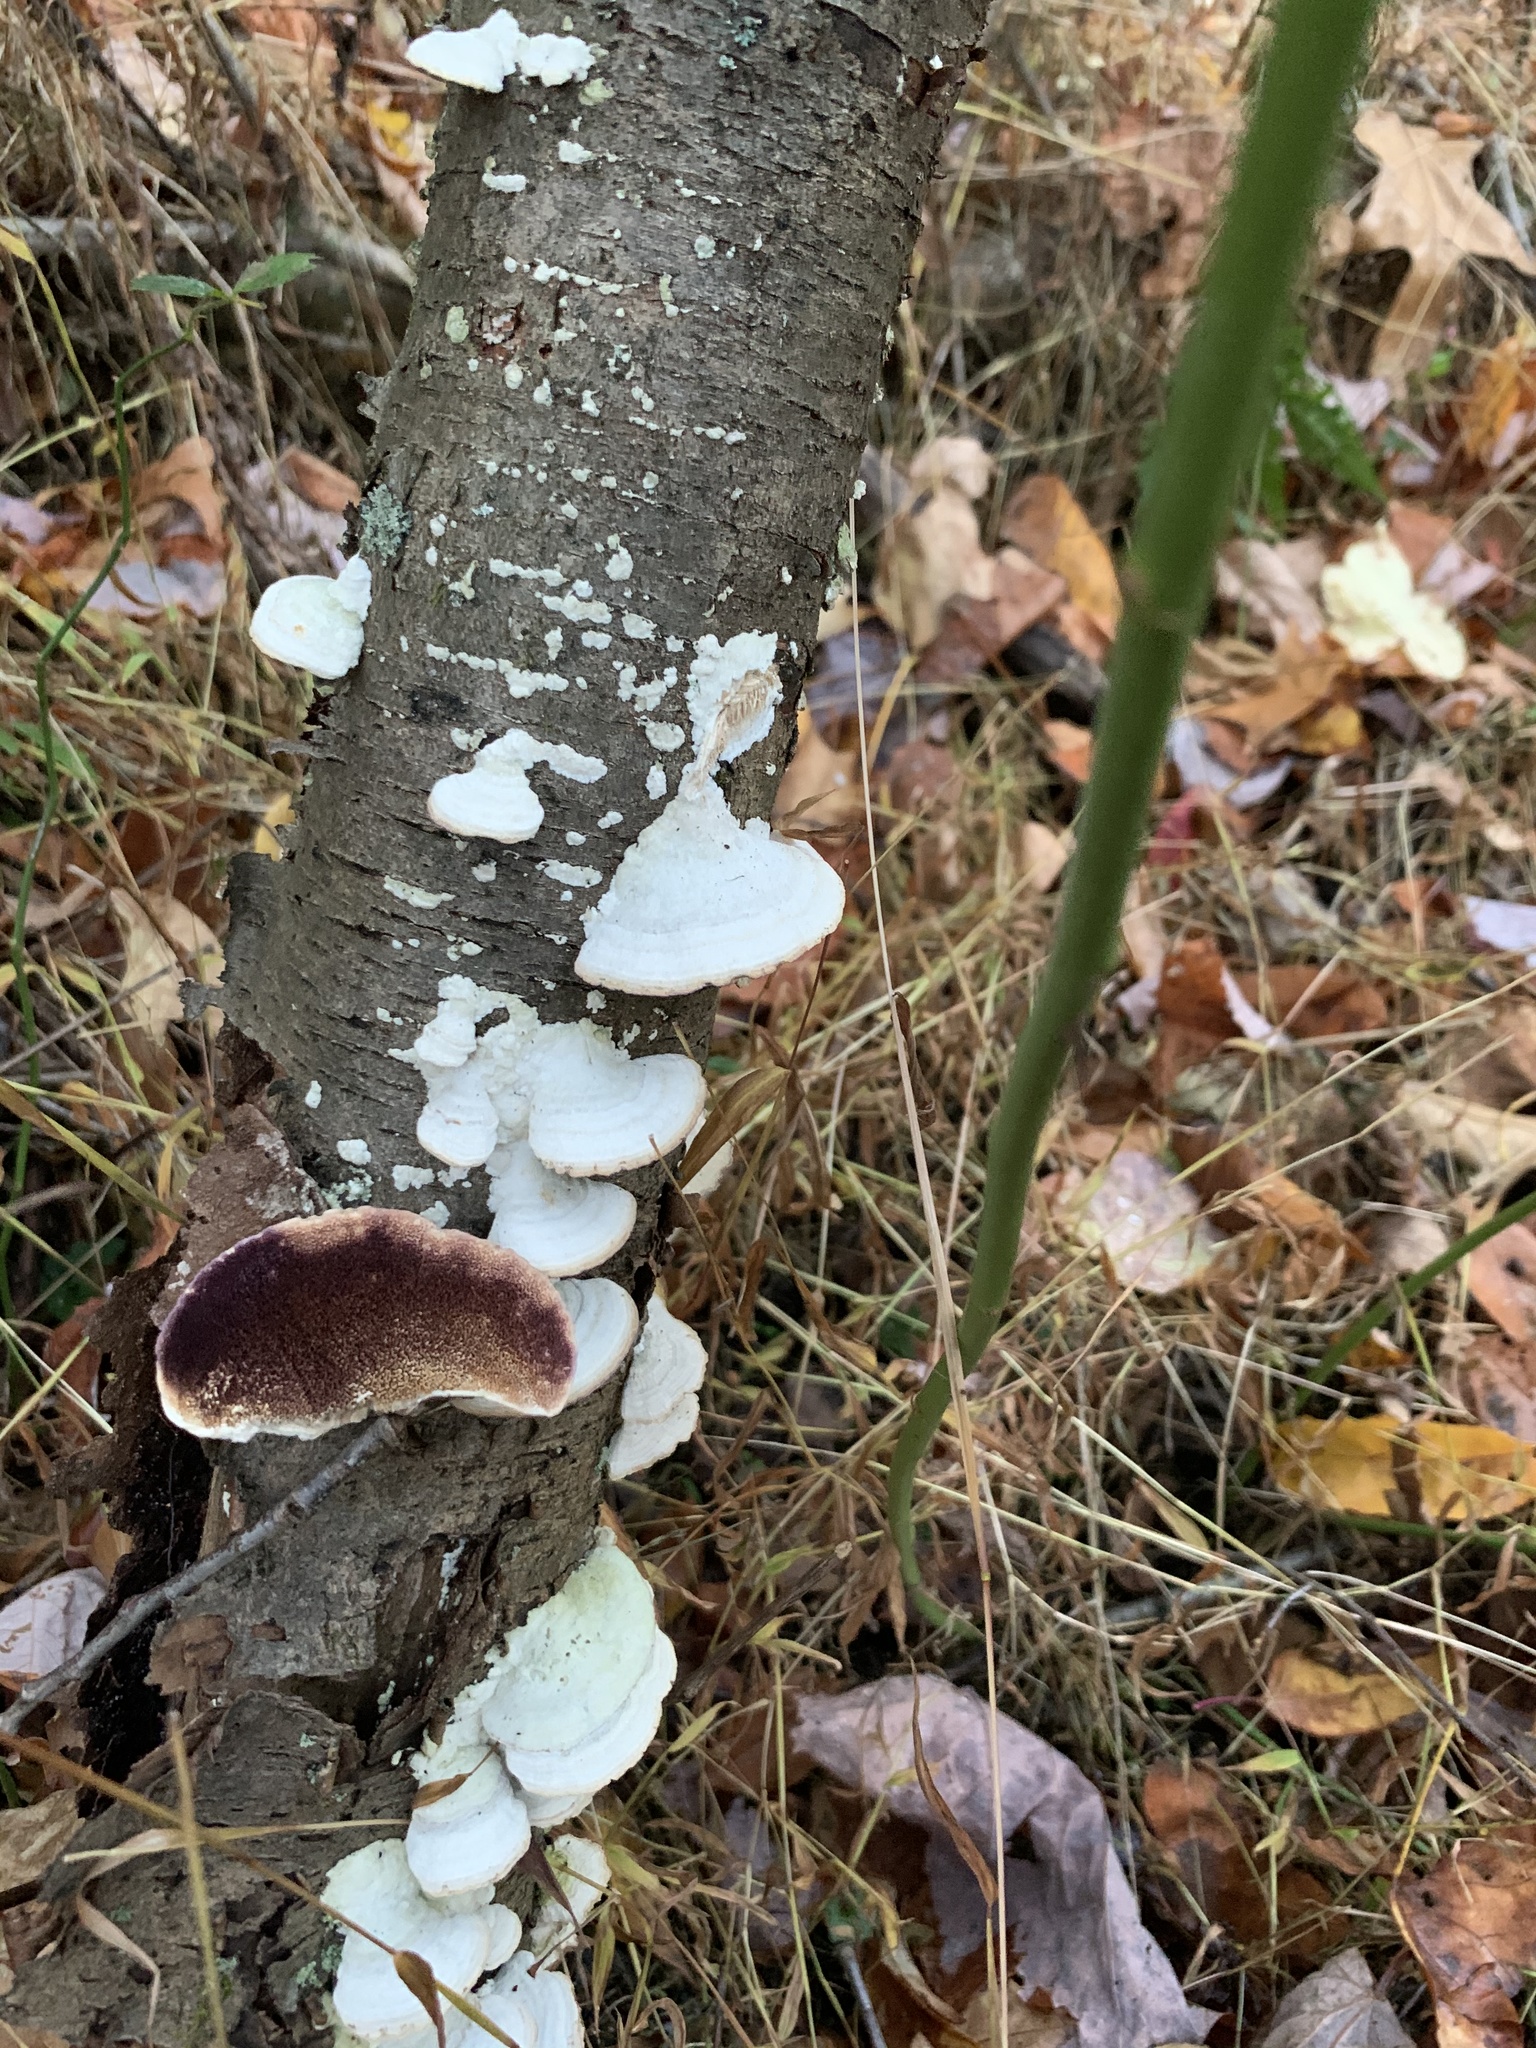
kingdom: Fungi
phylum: Basidiomycota
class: Agaricomycetes
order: Hymenochaetales
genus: Trichaptum
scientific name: Trichaptum biforme
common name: Violet-toothed polypore
